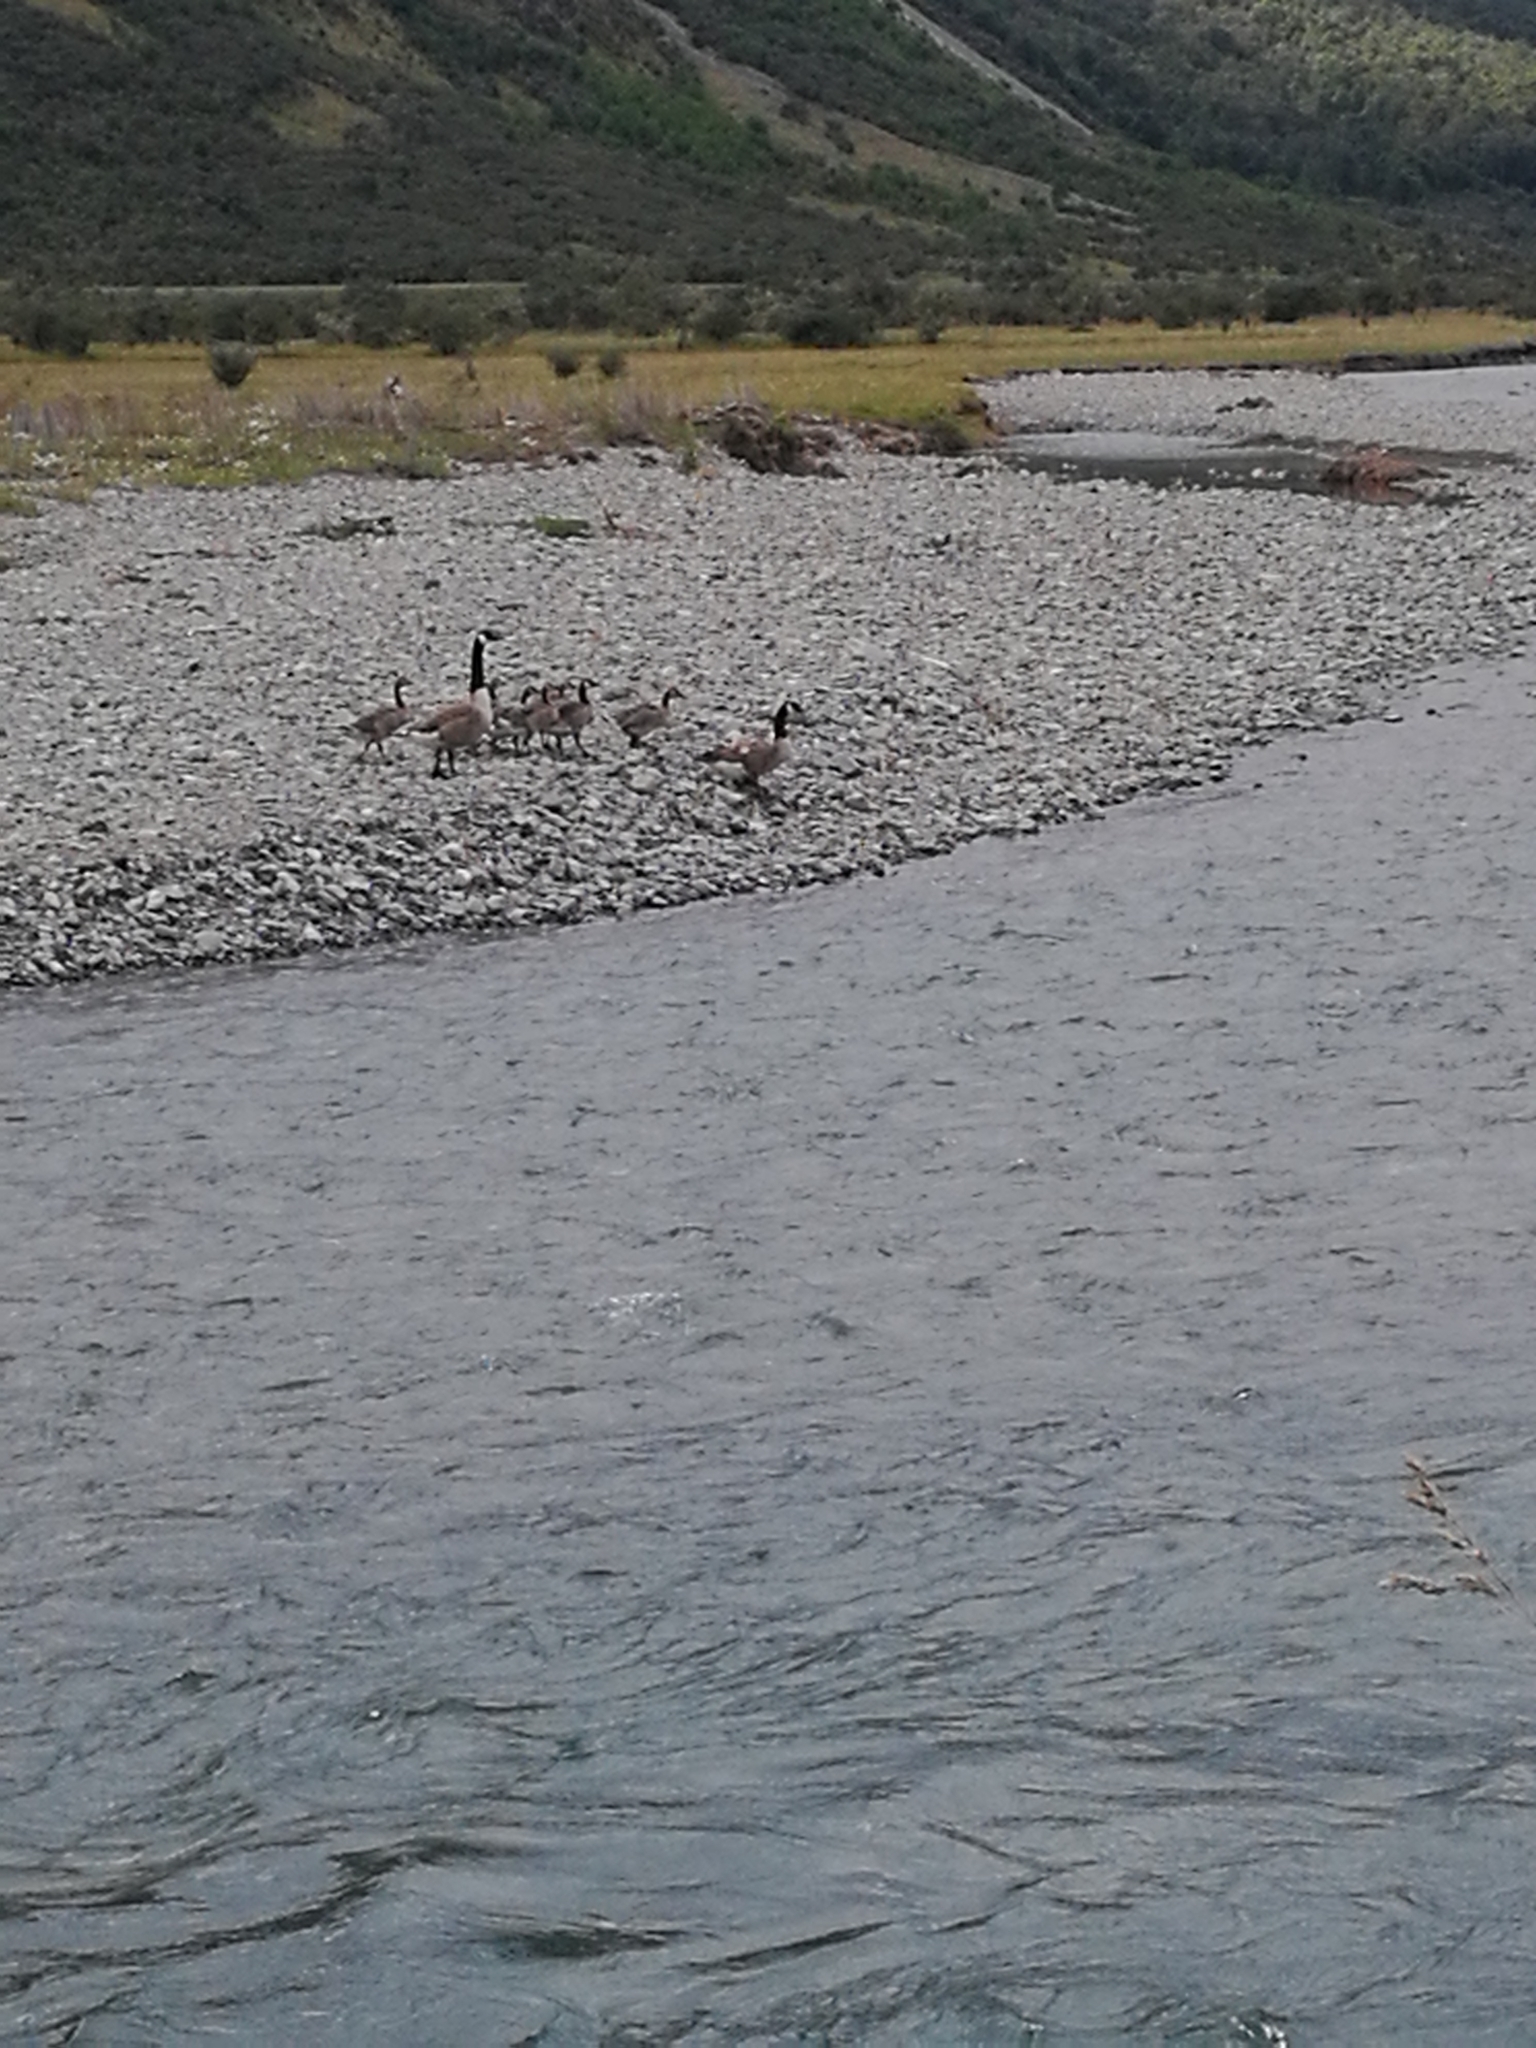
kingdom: Animalia
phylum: Chordata
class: Aves
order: Anseriformes
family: Anatidae
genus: Branta
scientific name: Branta canadensis
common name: Canada goose
